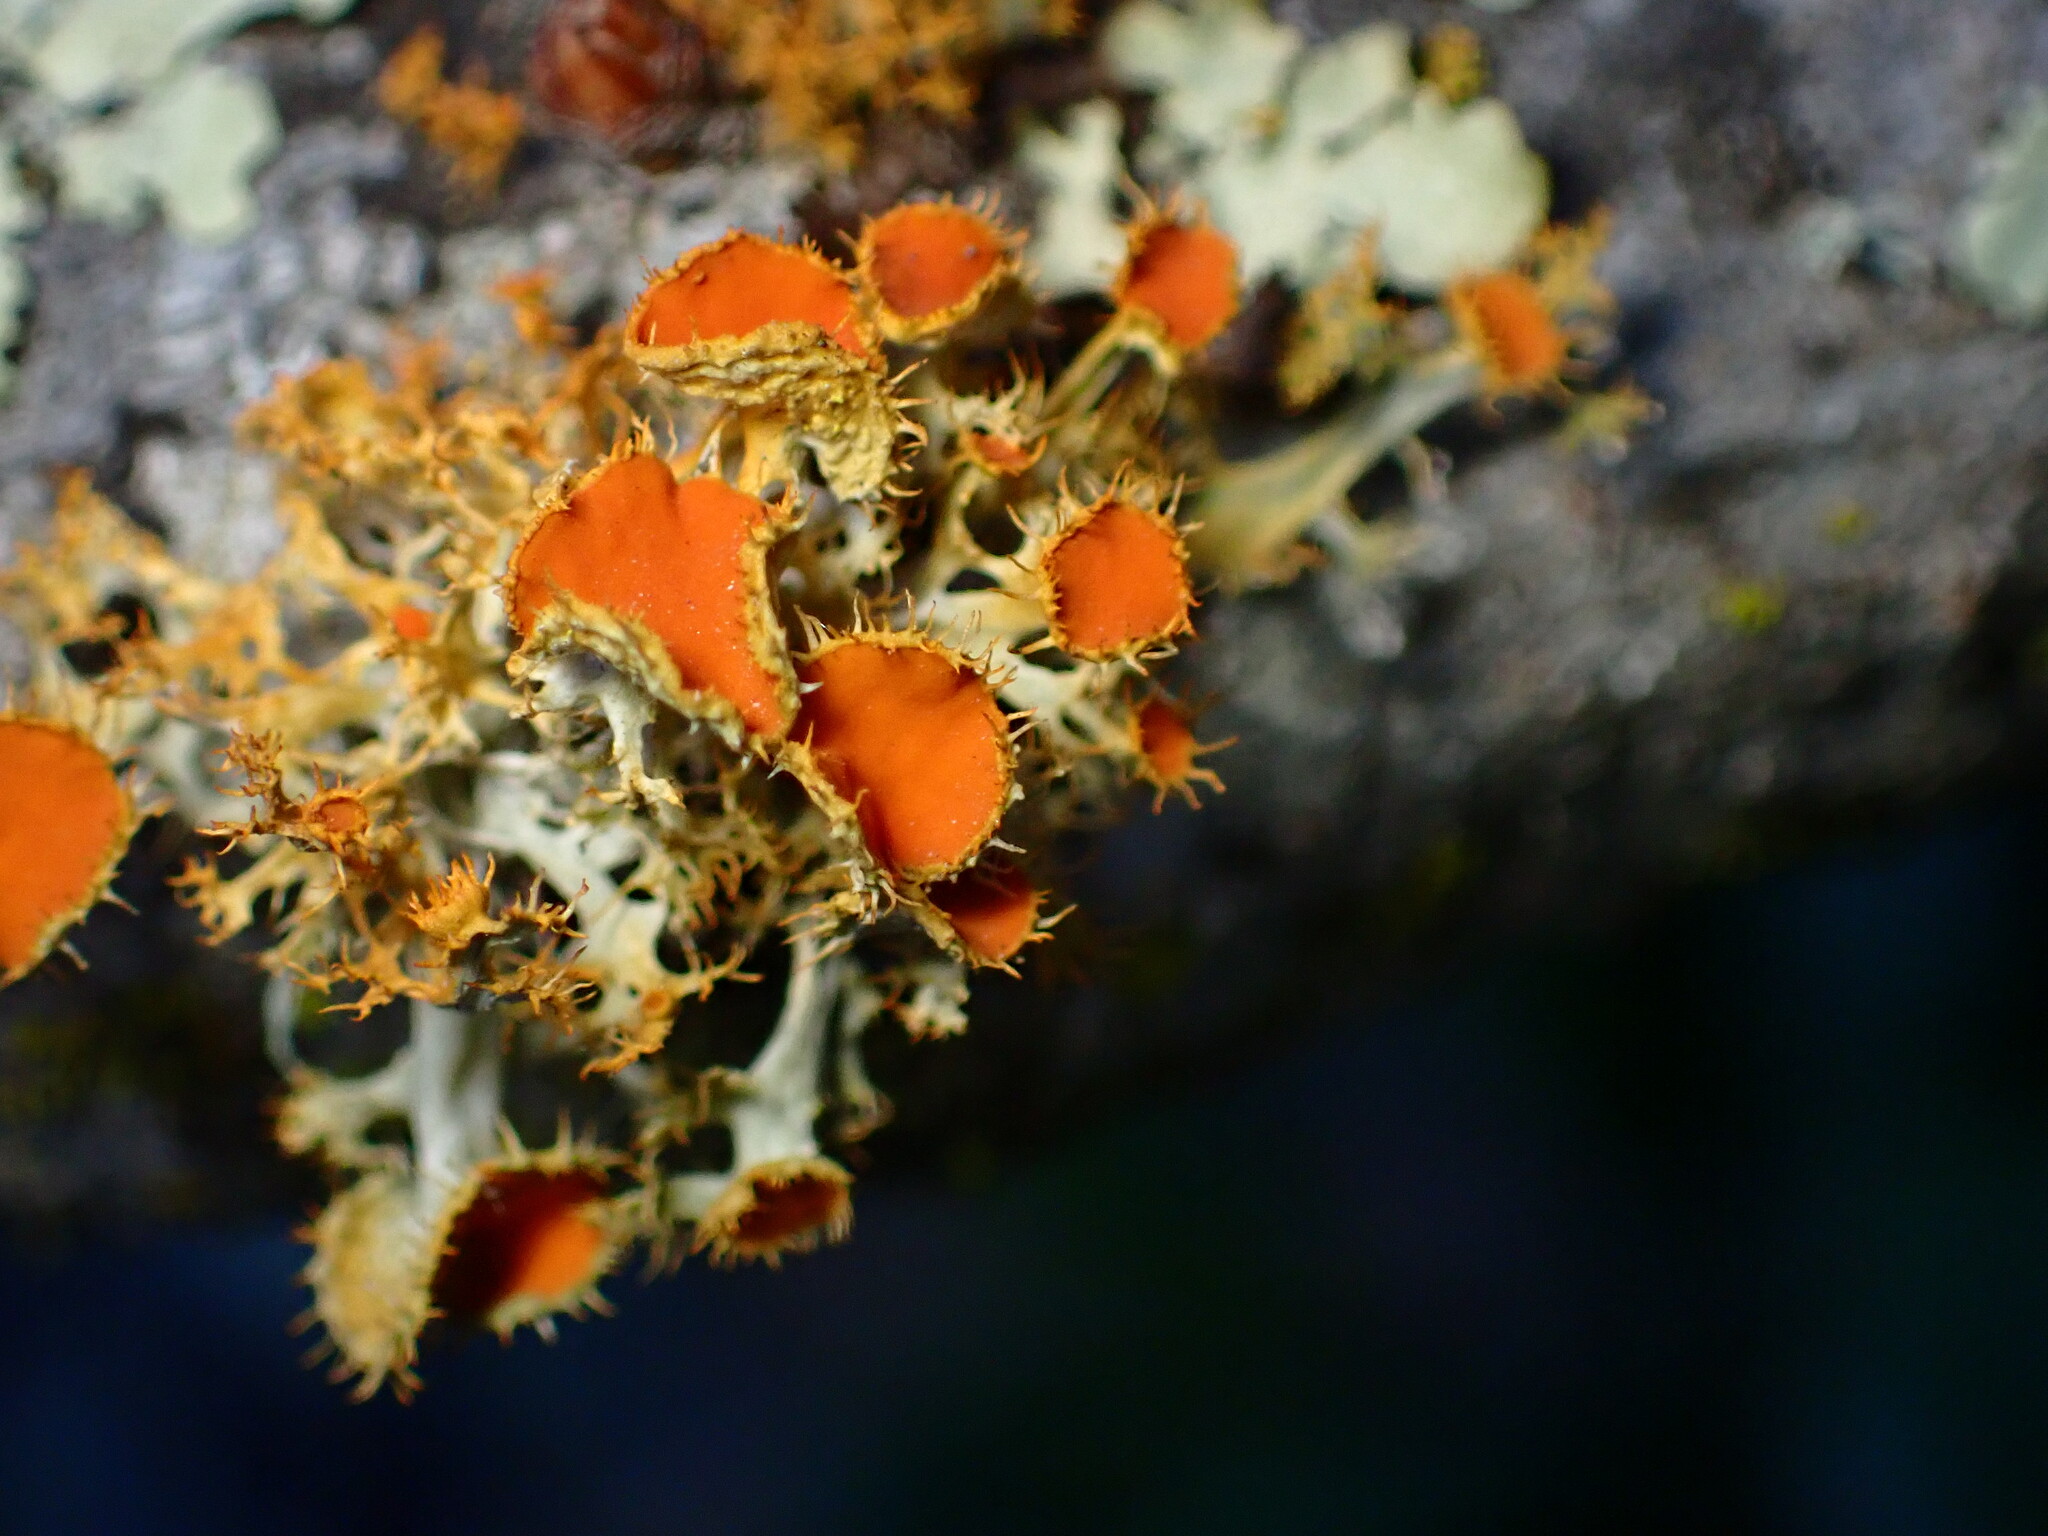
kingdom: Fungi
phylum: Ascomycota
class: Lecanoromycetes
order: Teloschistales
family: Teloschistaceae
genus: Niorma
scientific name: Niorma chrysophthalma
